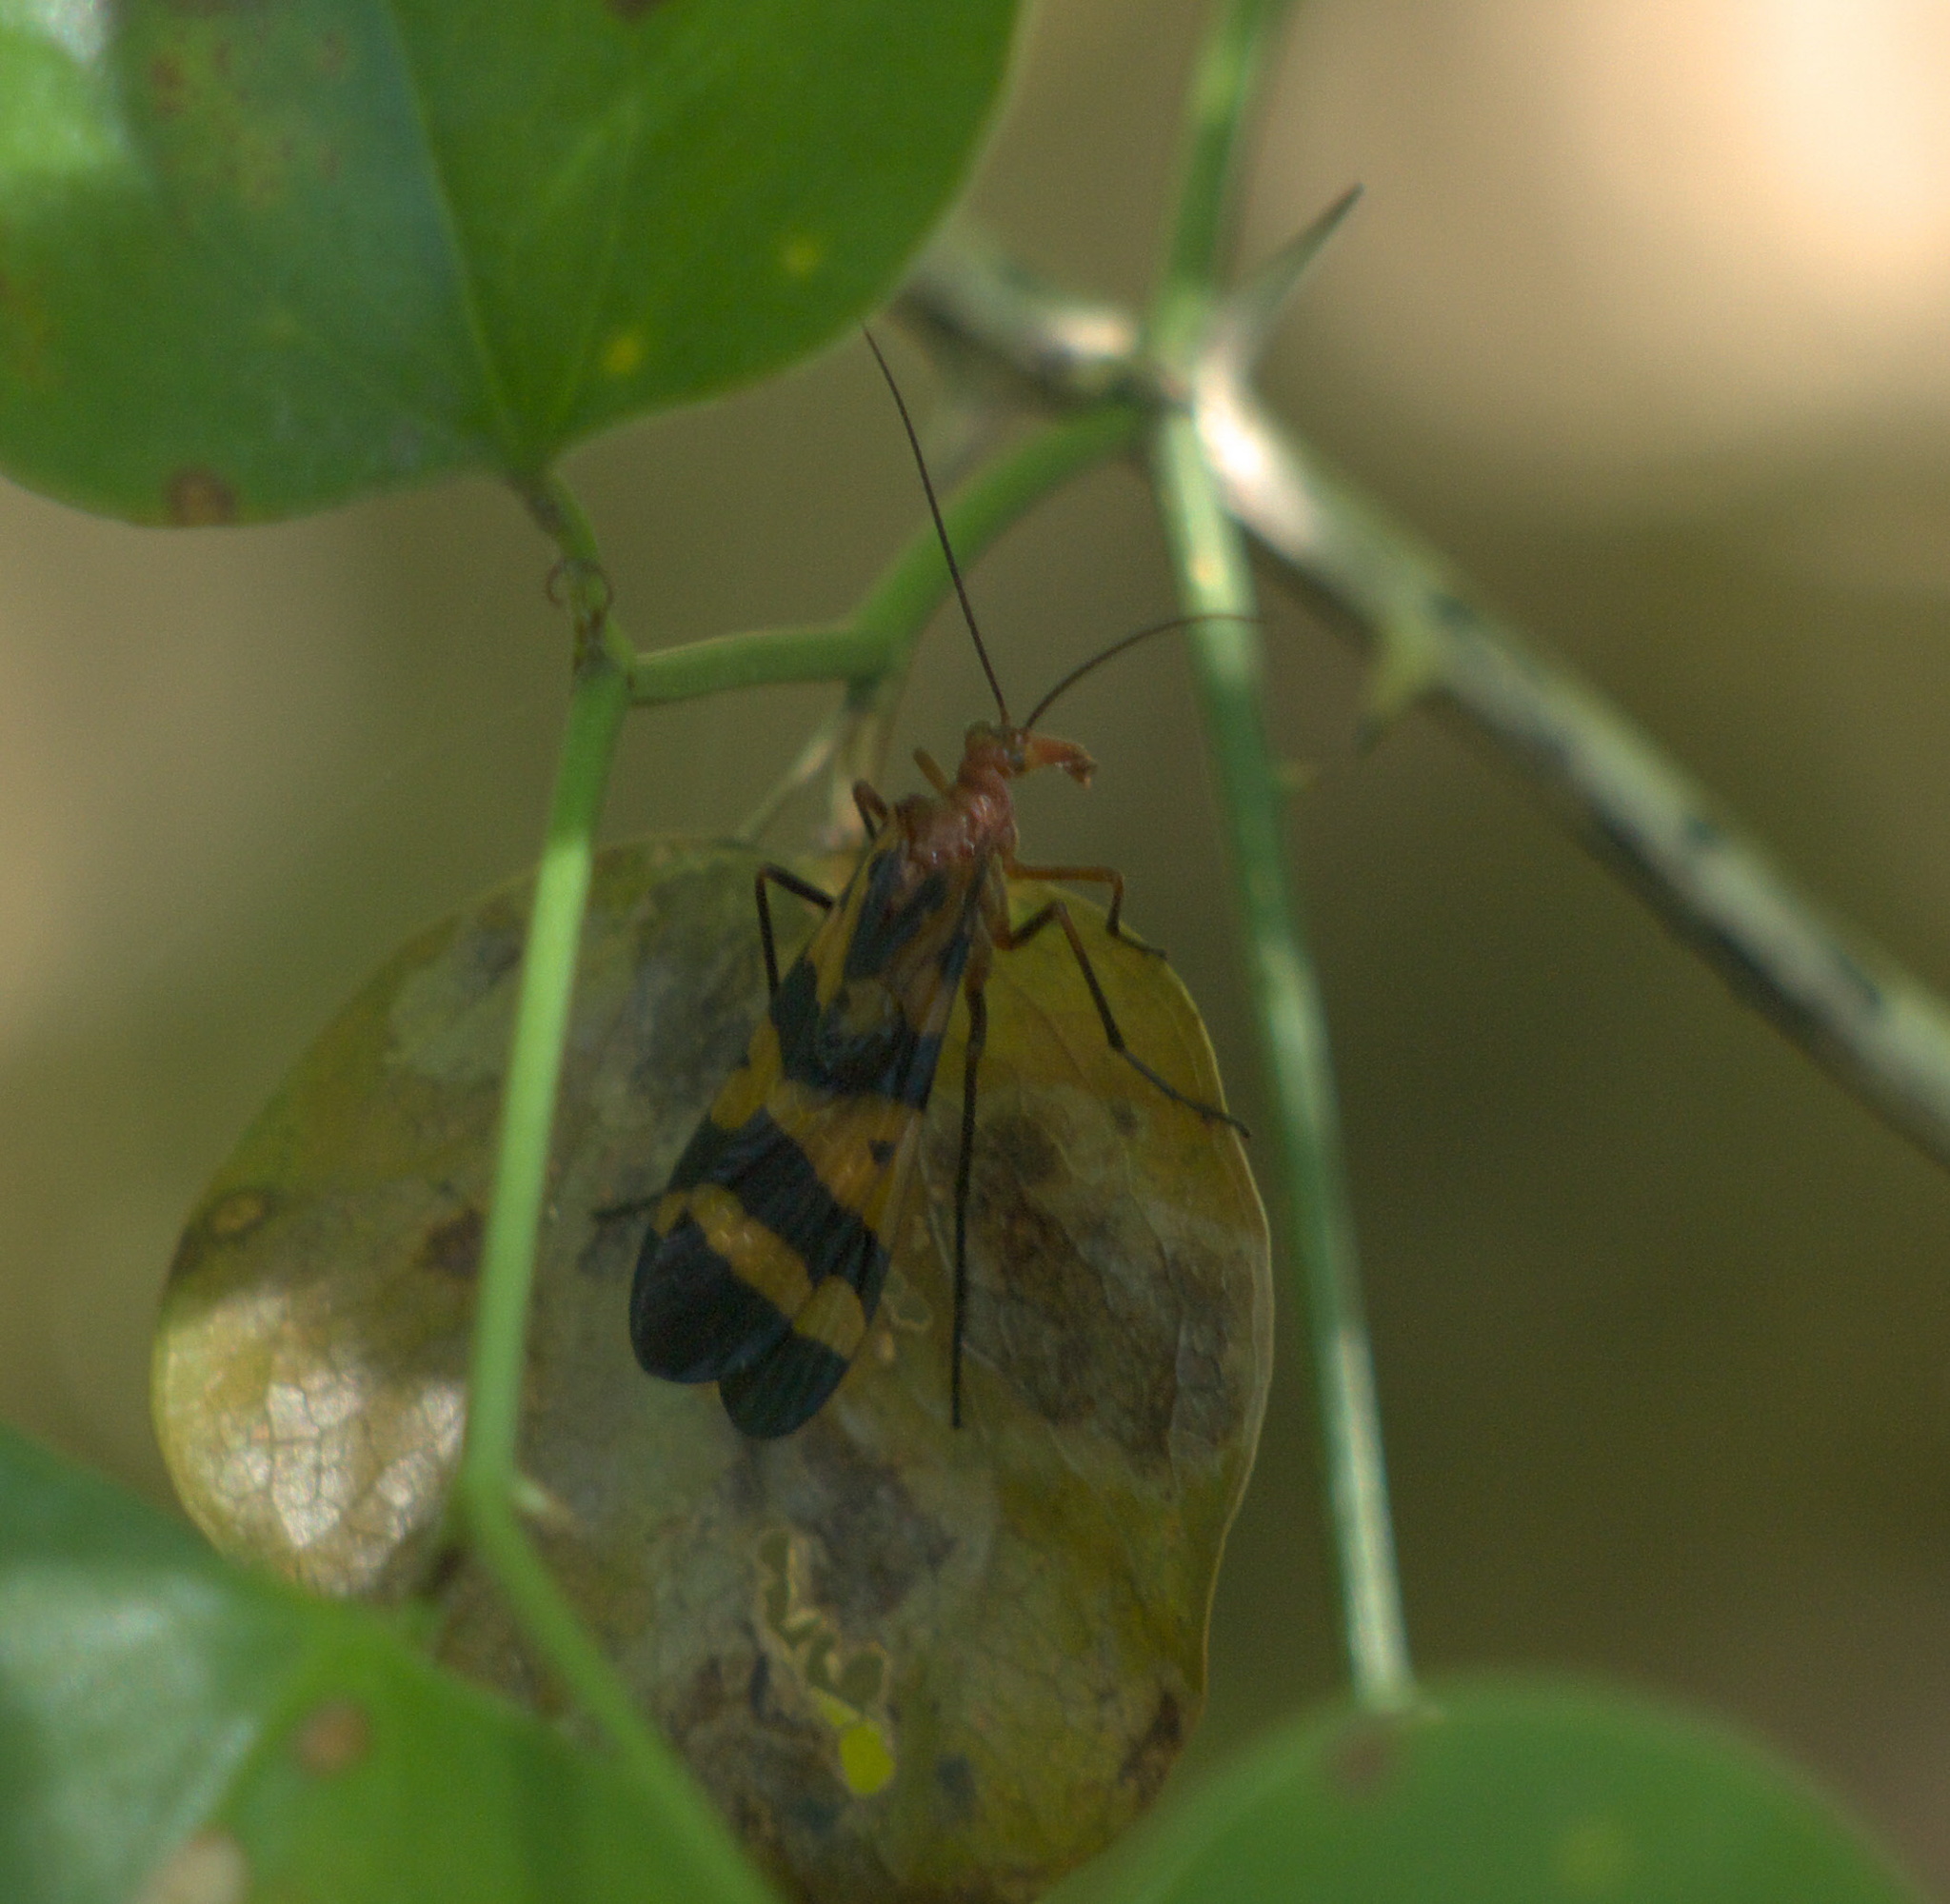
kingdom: Animalia
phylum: Arthropoda
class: Insecta
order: Mecoptera
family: Panorpidae
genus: Panorpa
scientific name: Panorpa nuptialis
